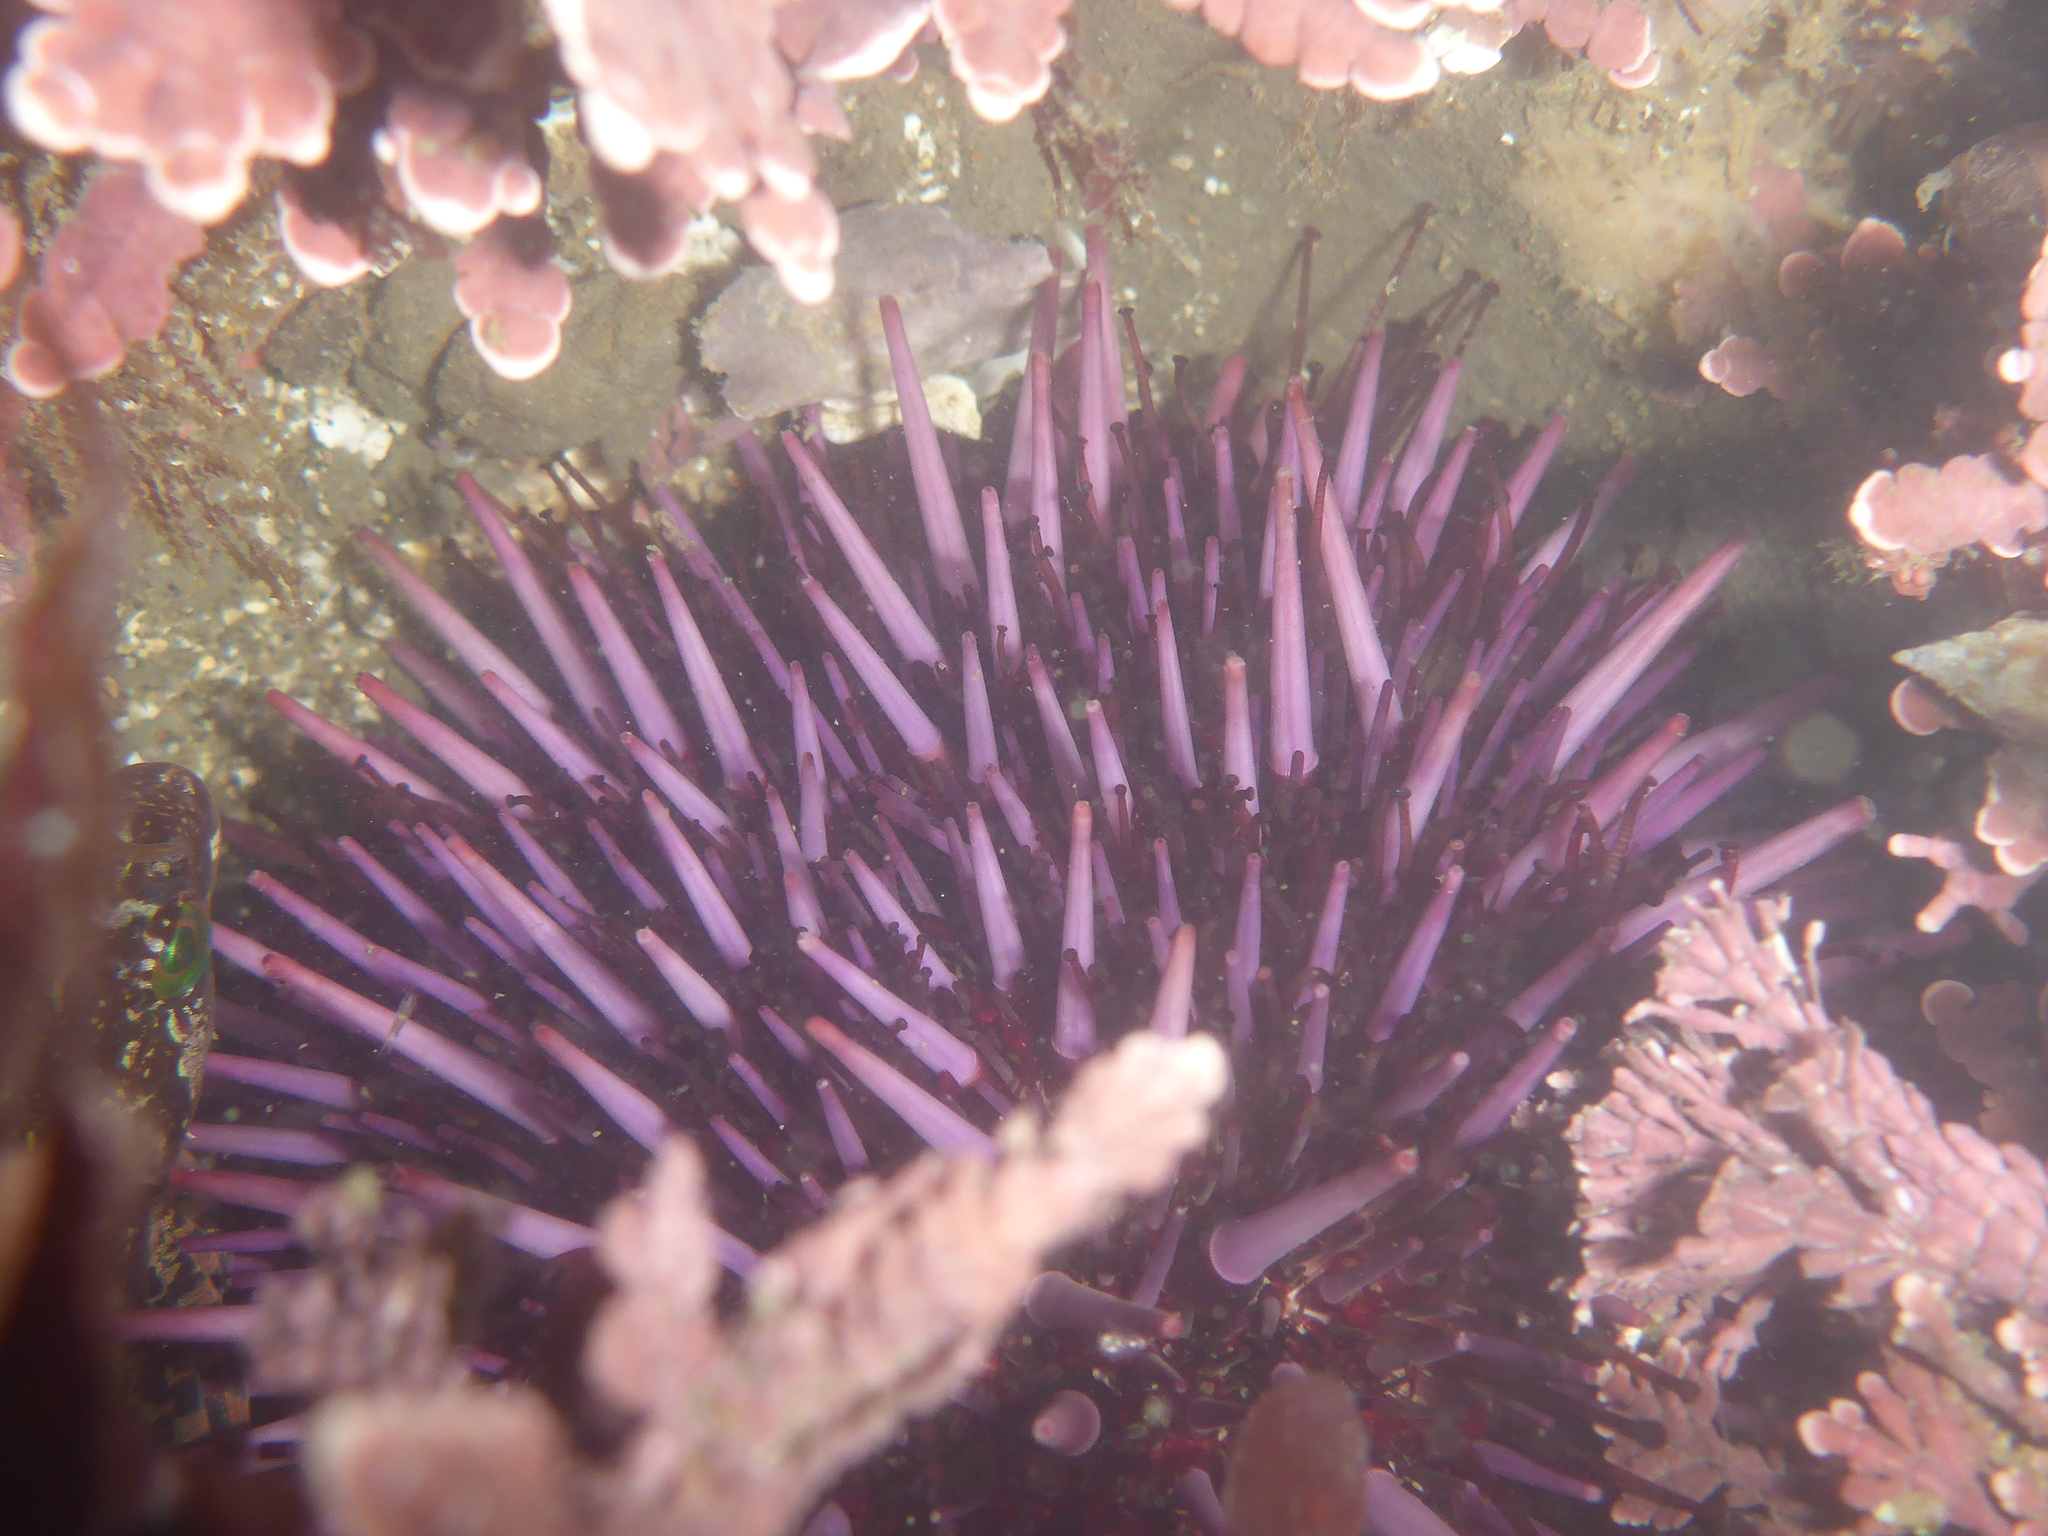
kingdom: Animalia
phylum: Echinodermata
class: Echinoidea
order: Camarodonta
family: Strongylocentrotidae
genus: Strongylocentrotus
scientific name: Strongylocentrotus purpuratus
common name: Purple sea urchin
